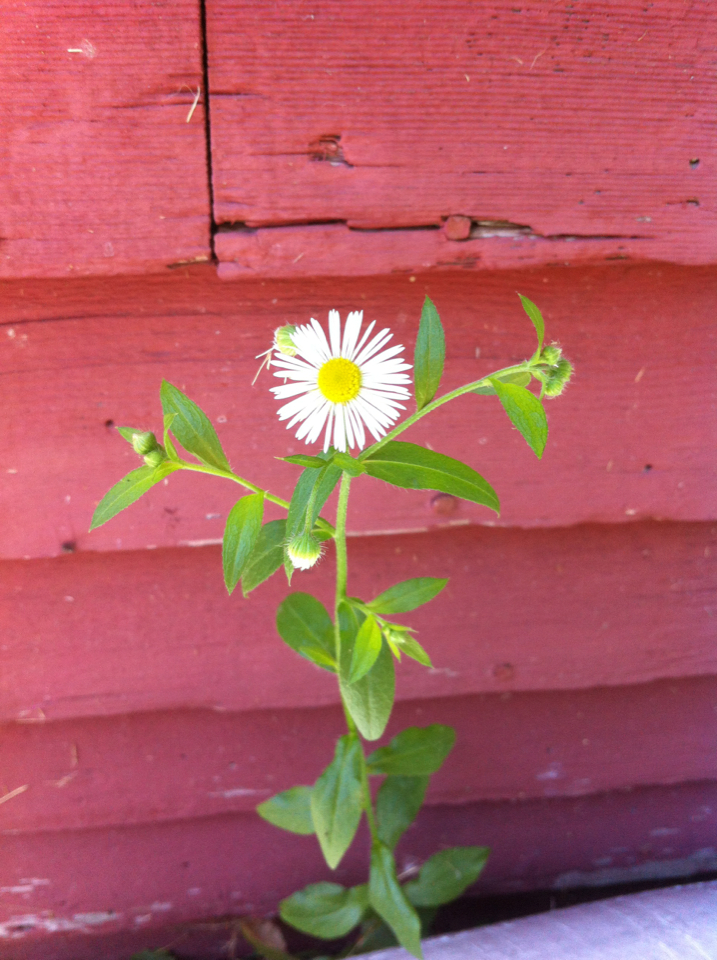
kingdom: Plantae
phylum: Tracheophyta
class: Magnoliopsida
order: Asterales
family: Asteraceae
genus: Erigeron
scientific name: Erigeron strigosus
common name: Common eastern fleabane
